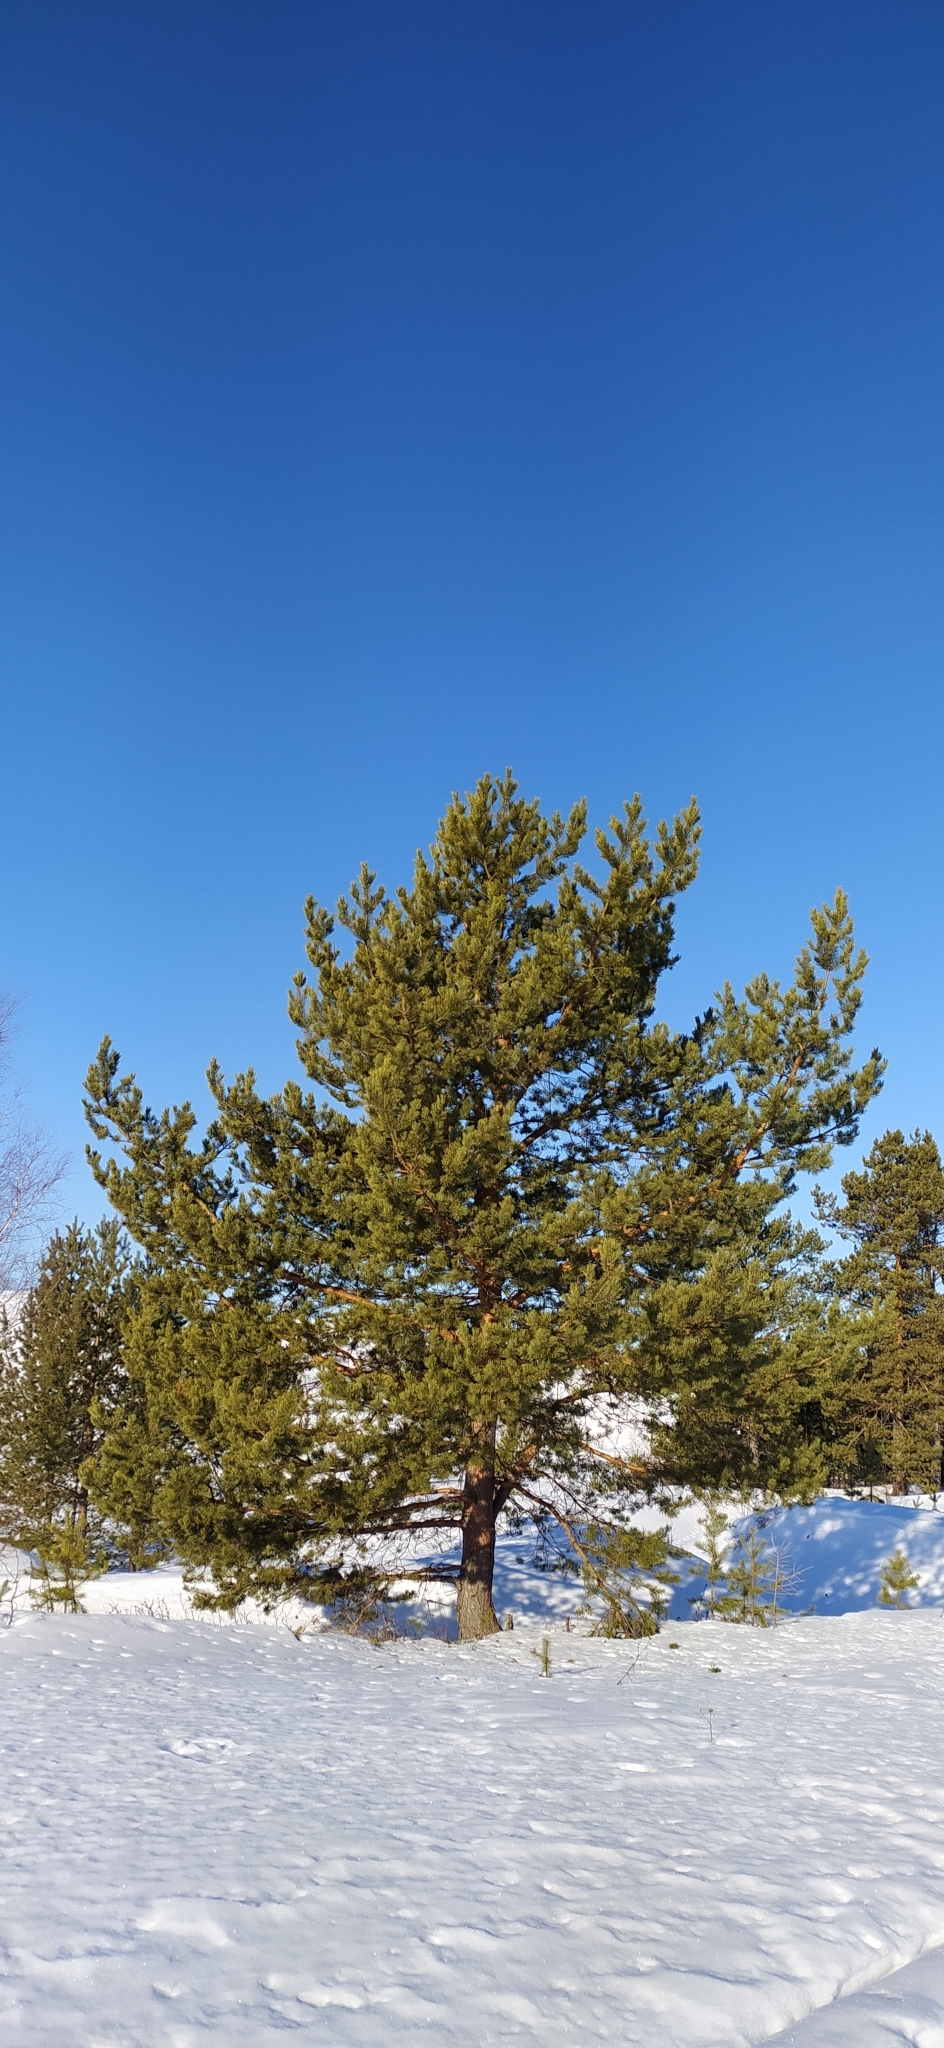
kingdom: Plantae
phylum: Tracheophyta
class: Pinopsida
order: Pinales
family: Pinaceae
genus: Pinus
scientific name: Pinus sylvestris
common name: Scots pine
